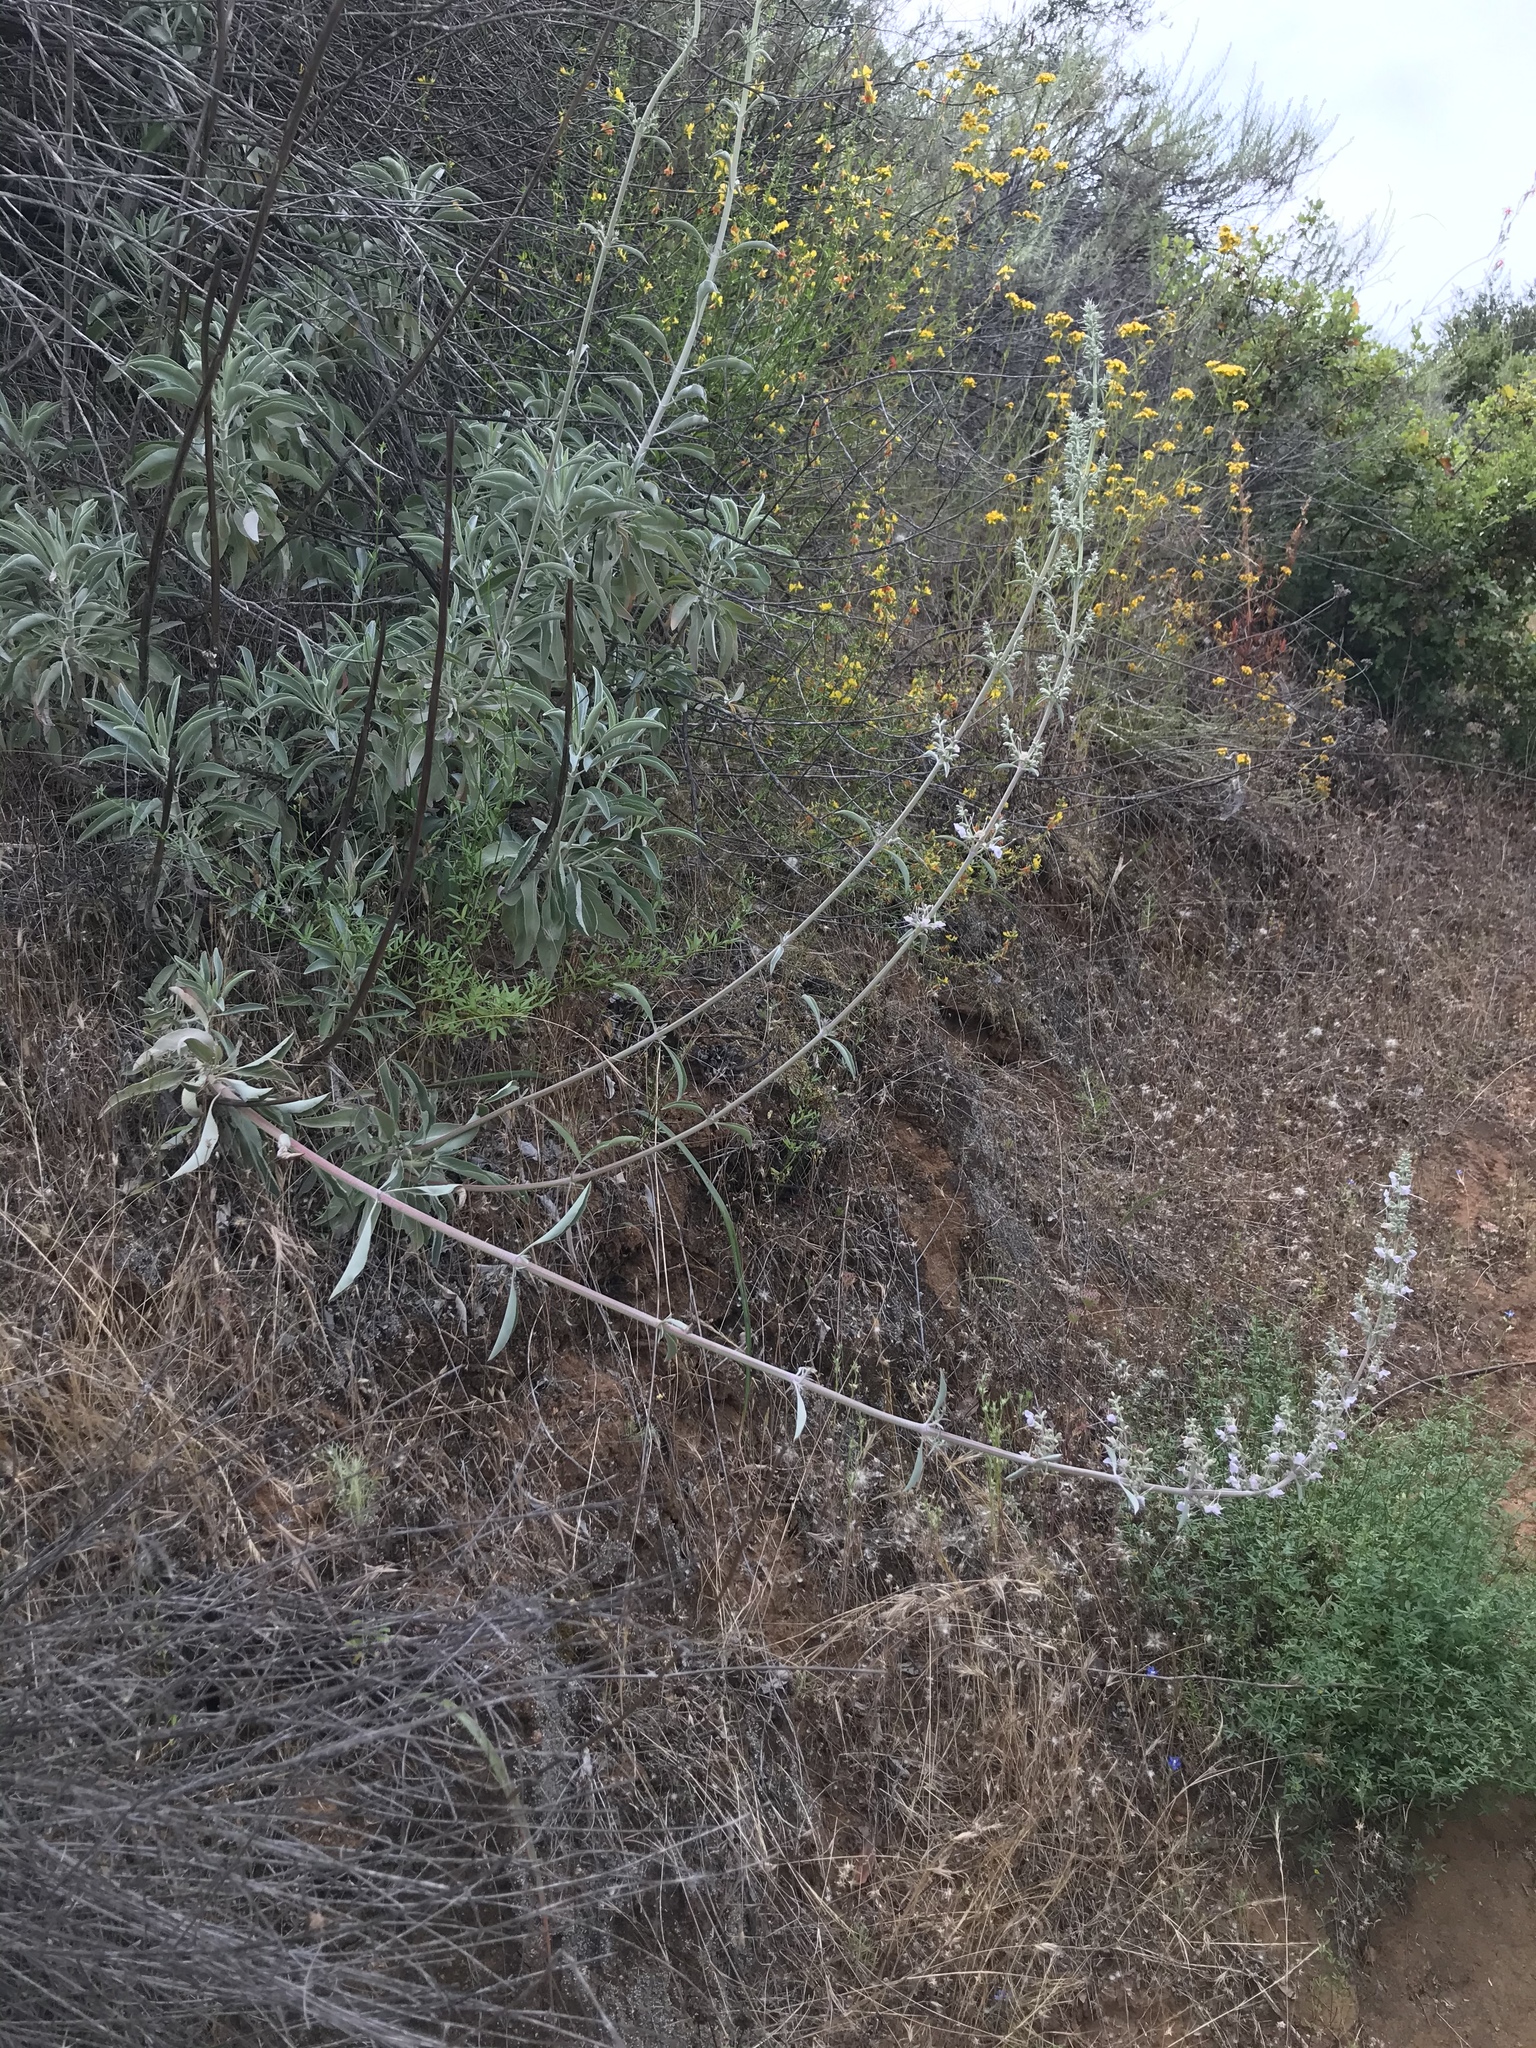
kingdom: Plantae
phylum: Tracheophyta
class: Magnoliopsida
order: Lamiales
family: Lamiaceae
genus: Salvia
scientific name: Salvia apiana
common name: White sage
